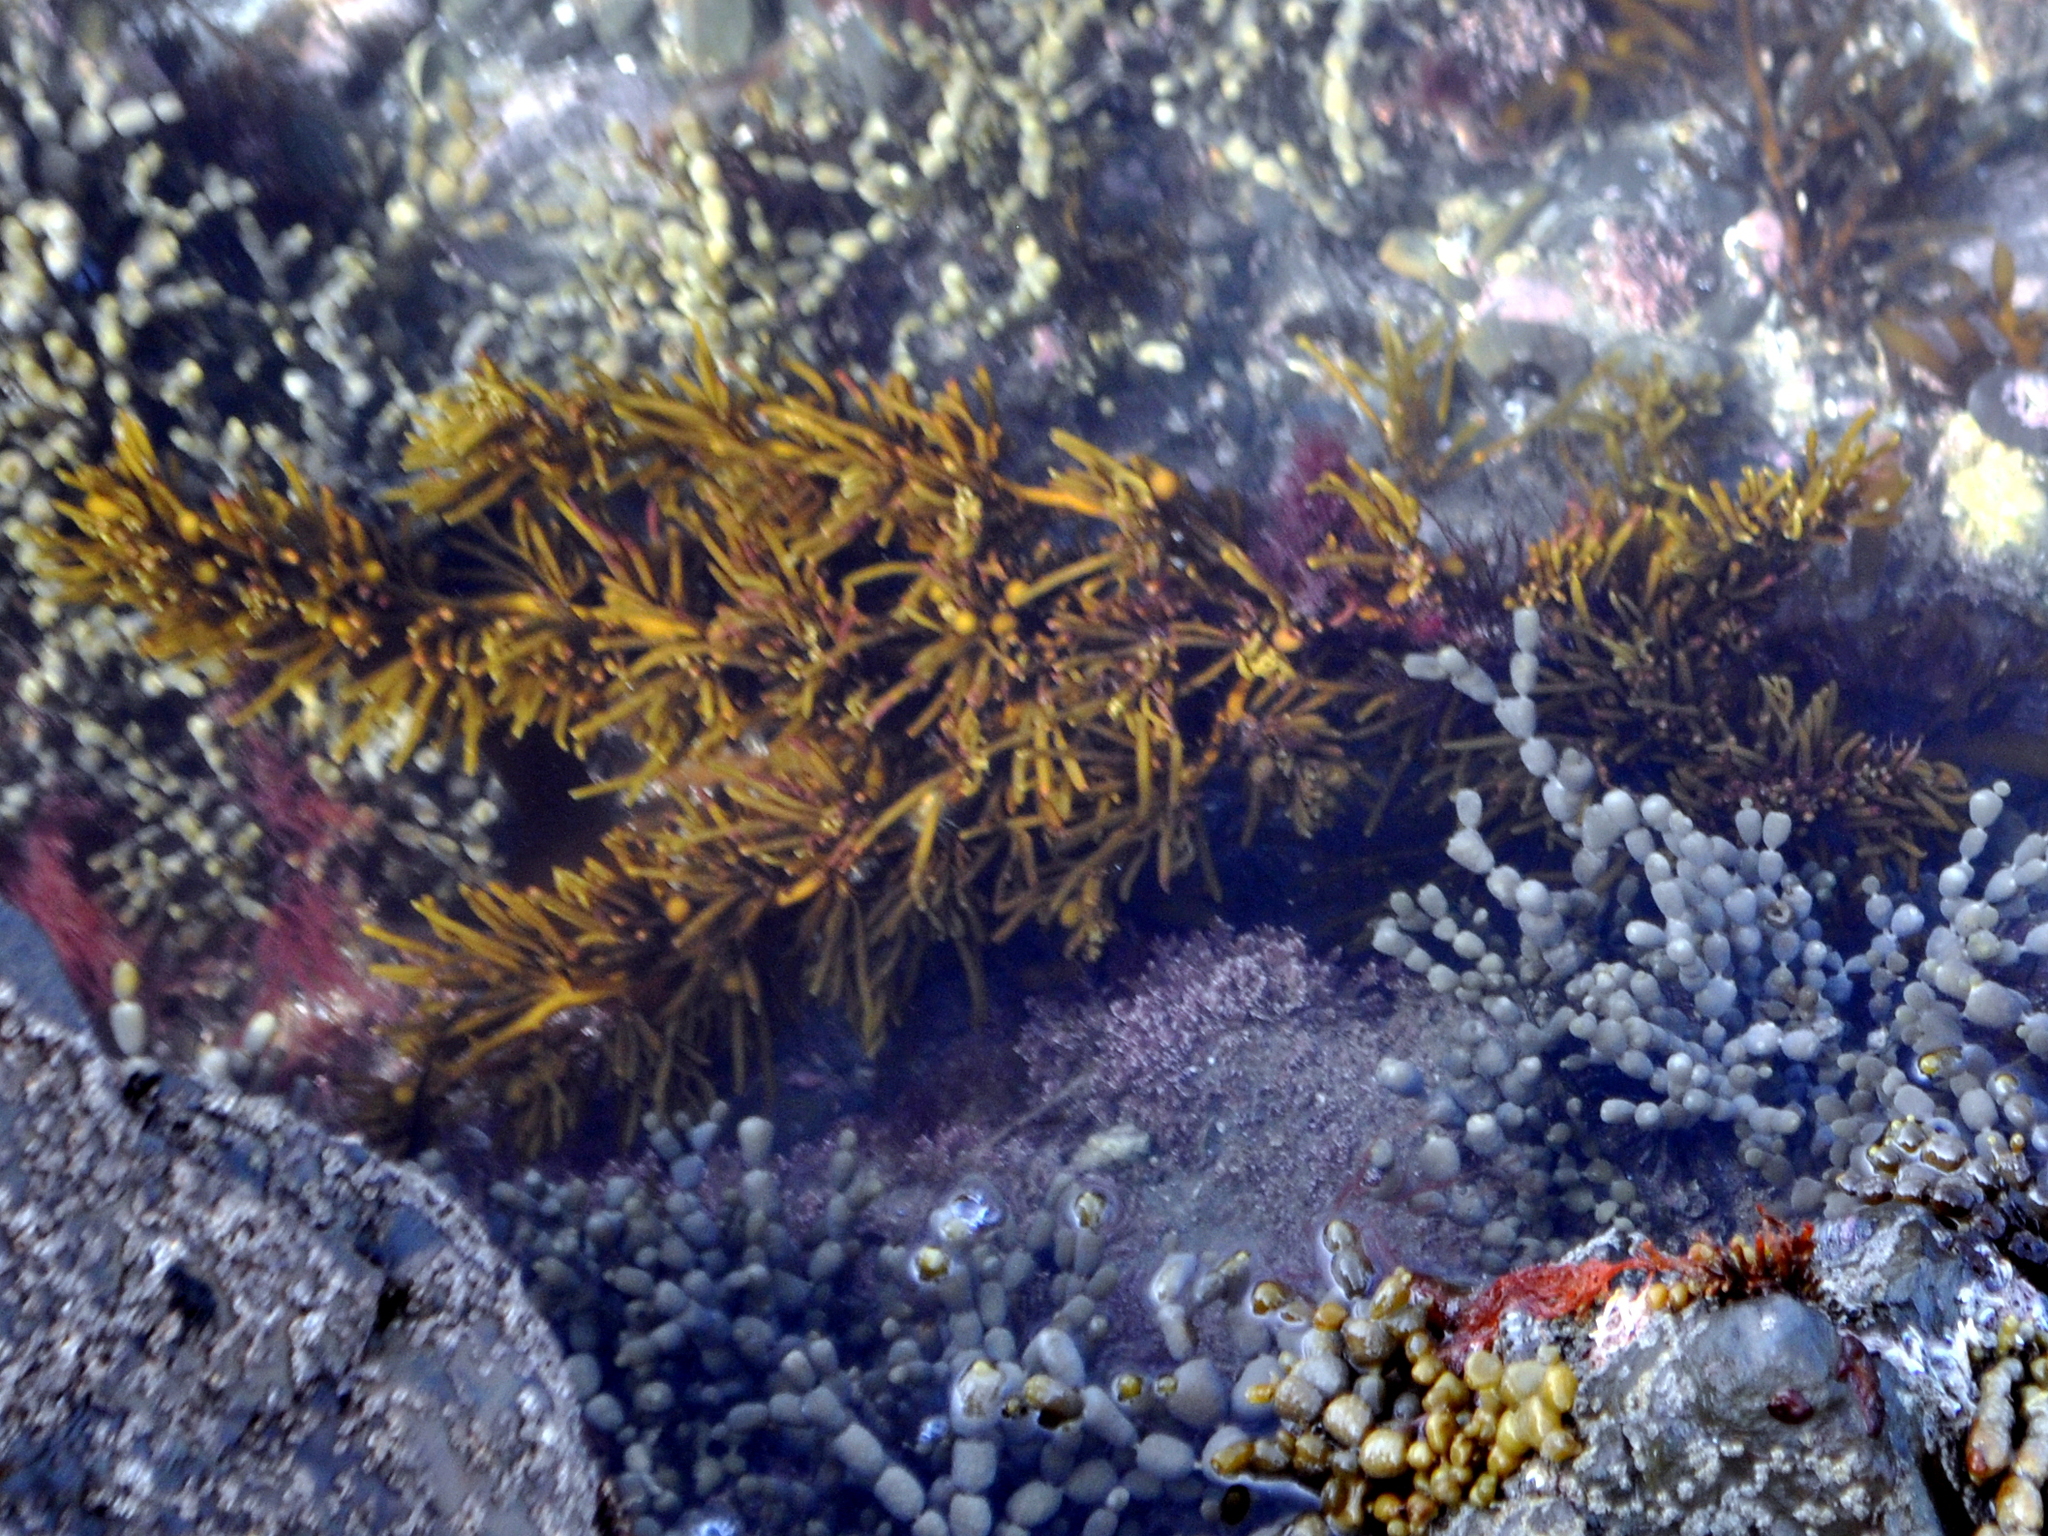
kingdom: Chromista
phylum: Ochrophyta
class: Phaeophyceae
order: Fucales
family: Sargassaceae
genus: Cystophora
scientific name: Cystophora torulosa
